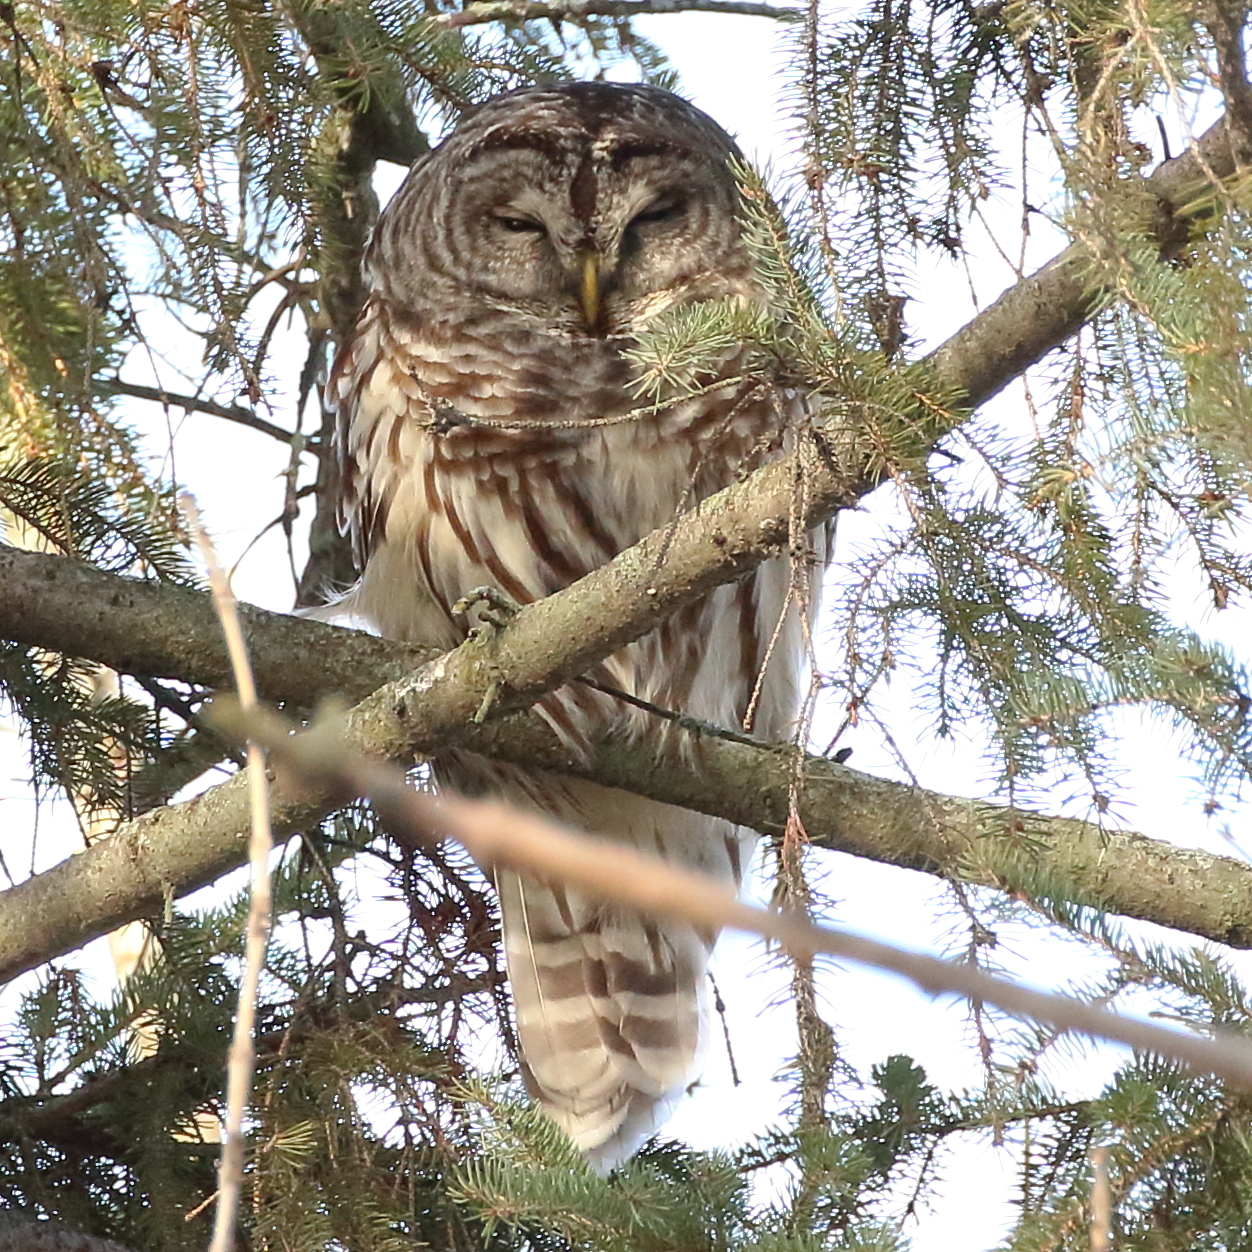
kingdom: Animalia
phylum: Chordata
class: Aves
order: Strigiformes
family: Strigidae
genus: Strix
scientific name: Strix varia
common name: Barred owl
